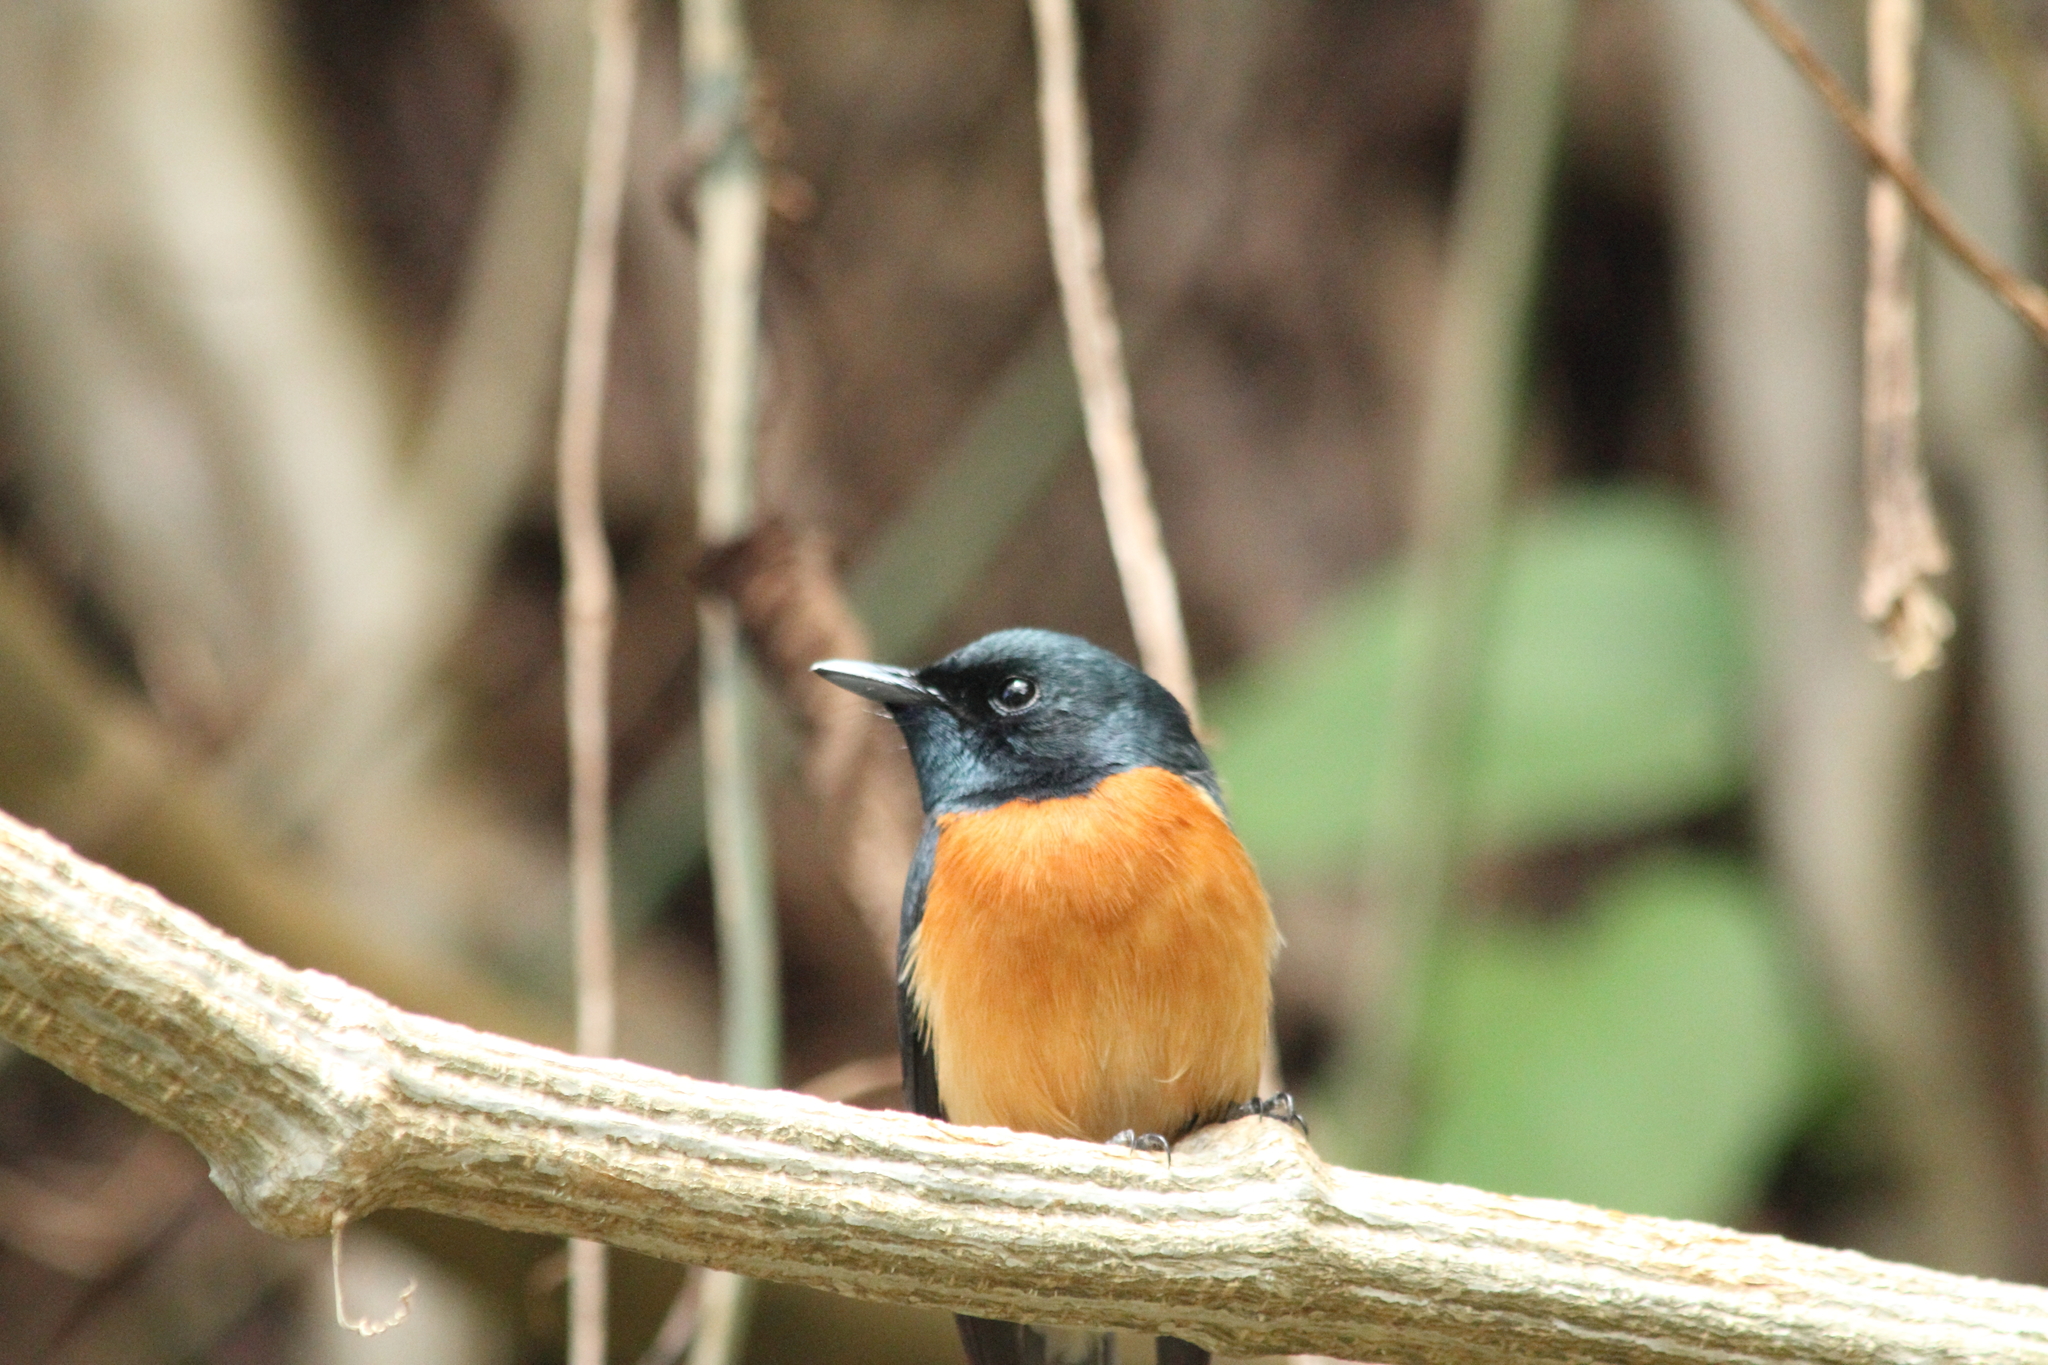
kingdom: Animalia
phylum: Chordata
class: Aves
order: Passeriformes
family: Monarchidae
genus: Myiagra
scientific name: Myiagra vanikorensis
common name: Vanikoro flycatcher
